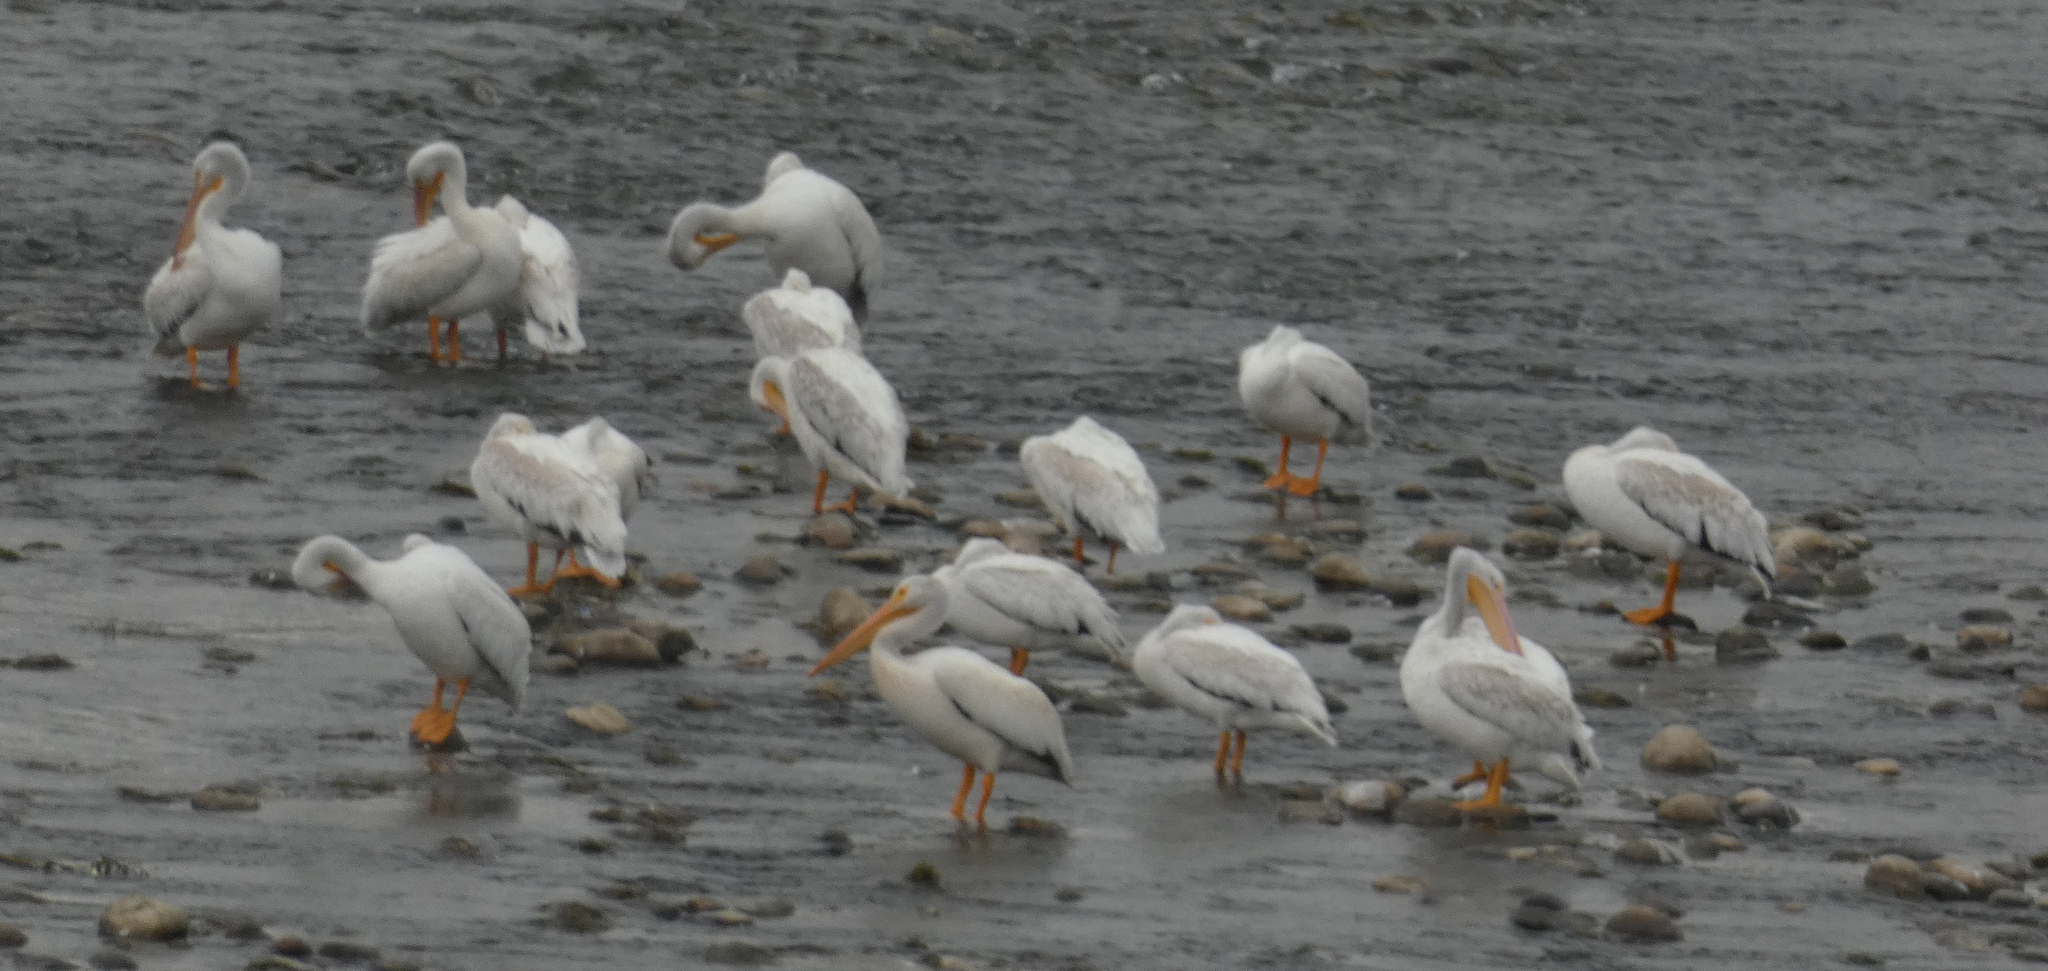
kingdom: Animalia
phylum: Chordata
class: Aves
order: Pelecaniformes
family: Pelecanidae
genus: Pelecanus
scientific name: Pelecanus erythrorhynchos
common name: American white pelican
